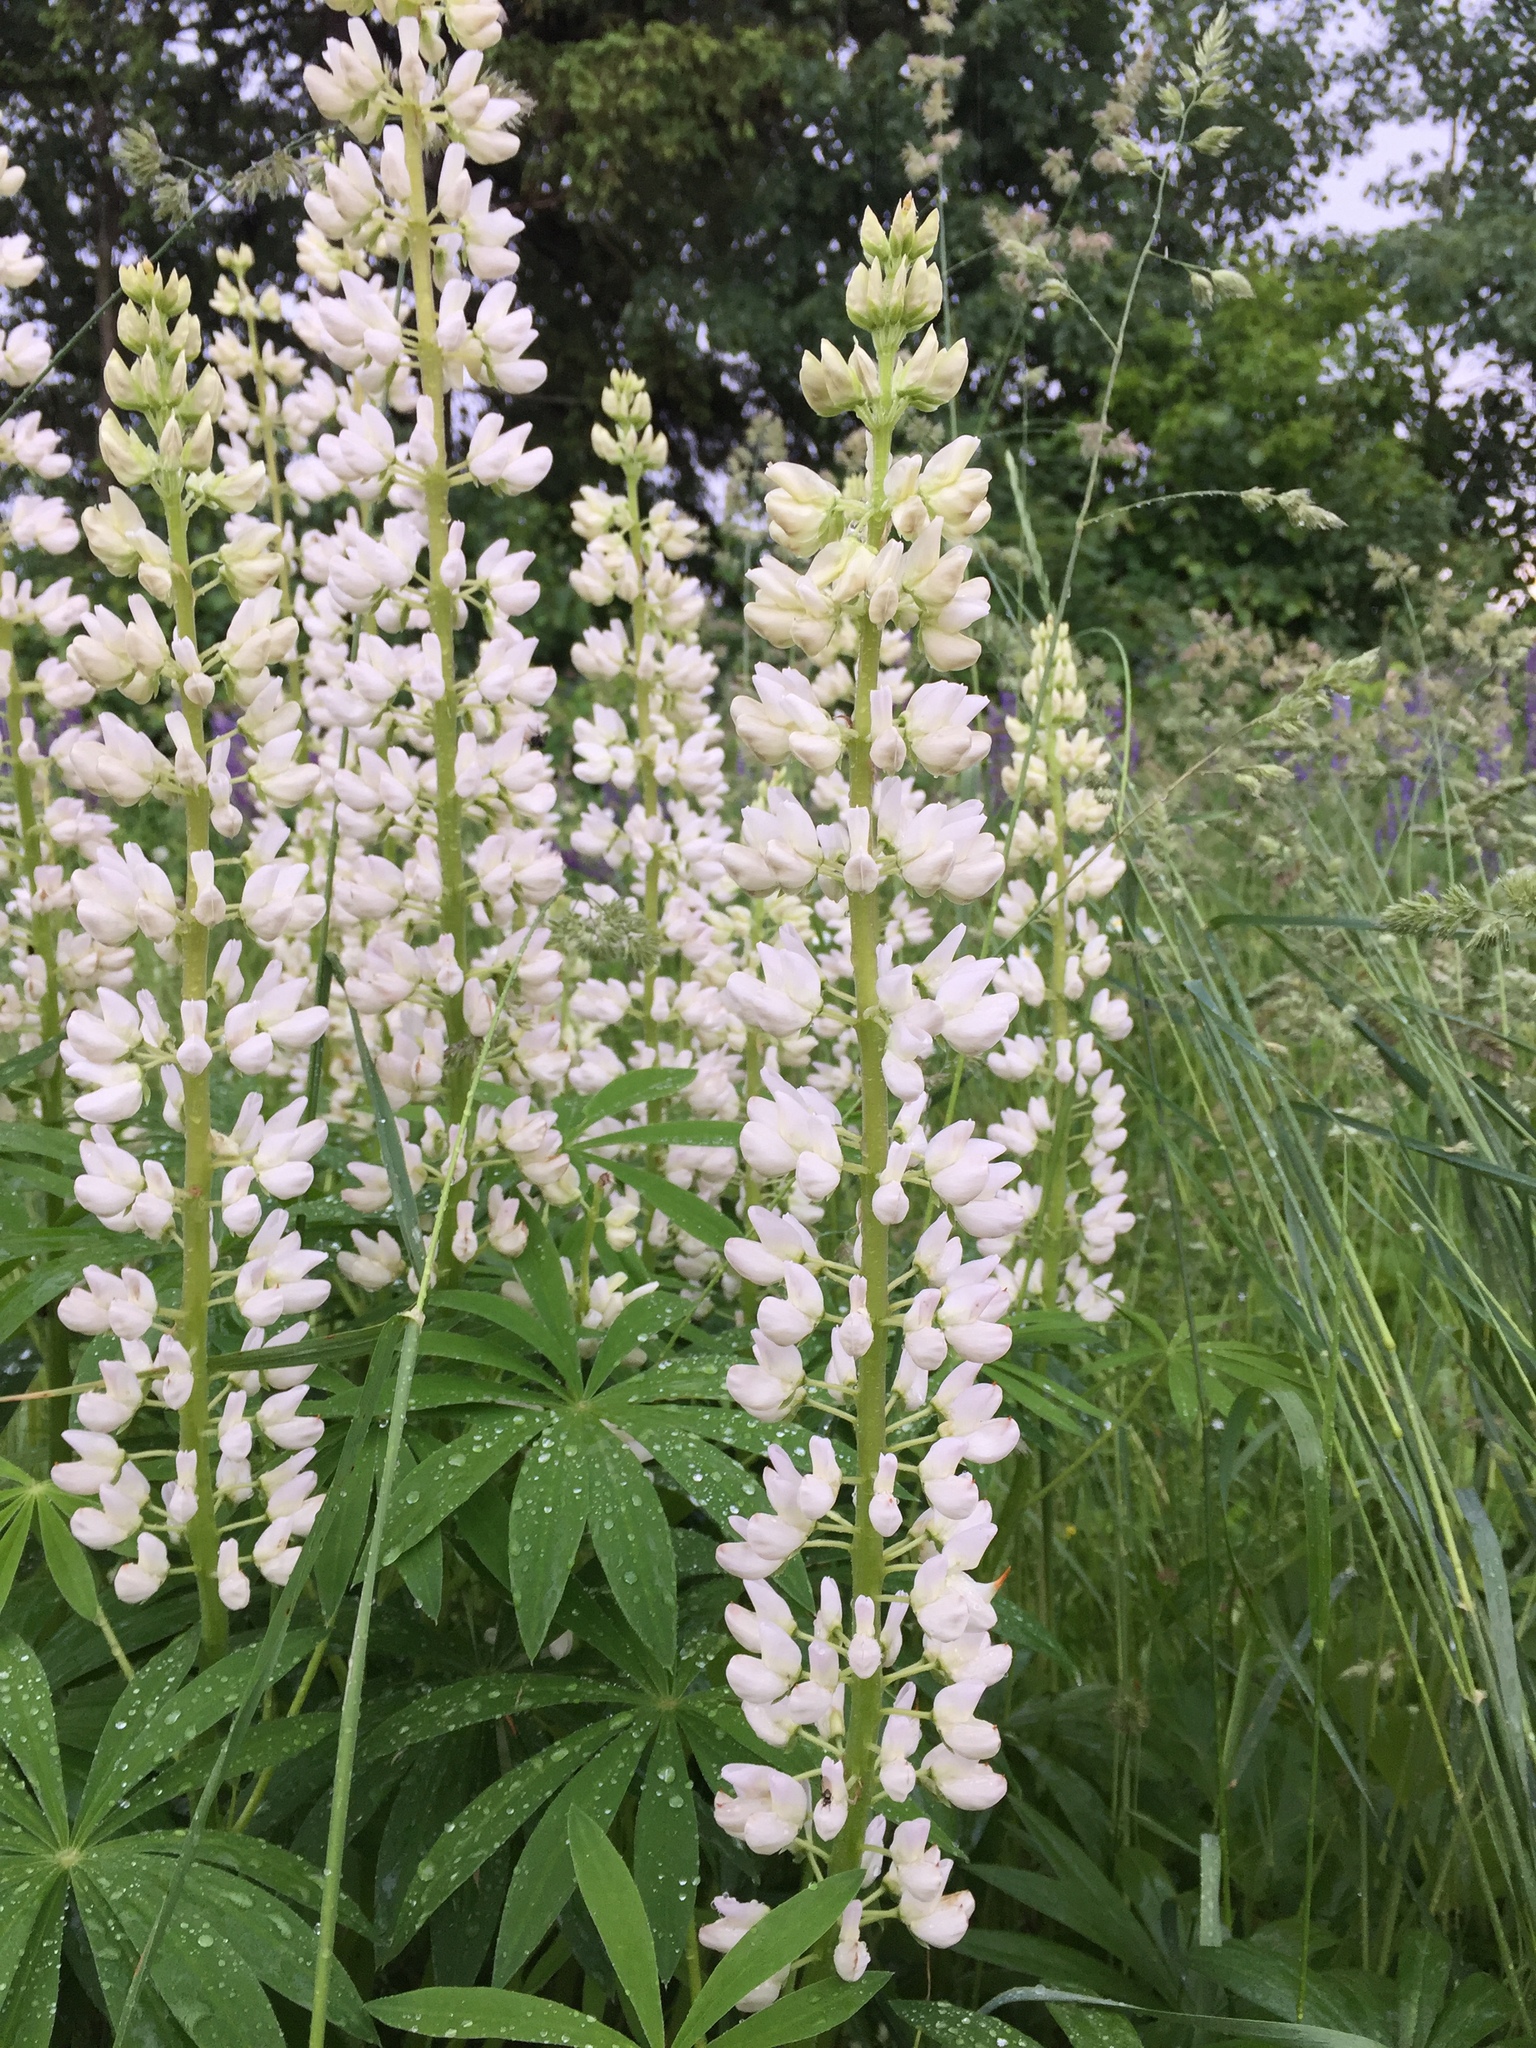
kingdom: Plantae
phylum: Tracheophyta
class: Magnoliopsida
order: Fabales
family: Fabaceae
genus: Lupinus
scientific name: Lupinus polyphyllus
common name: Garden lupin
